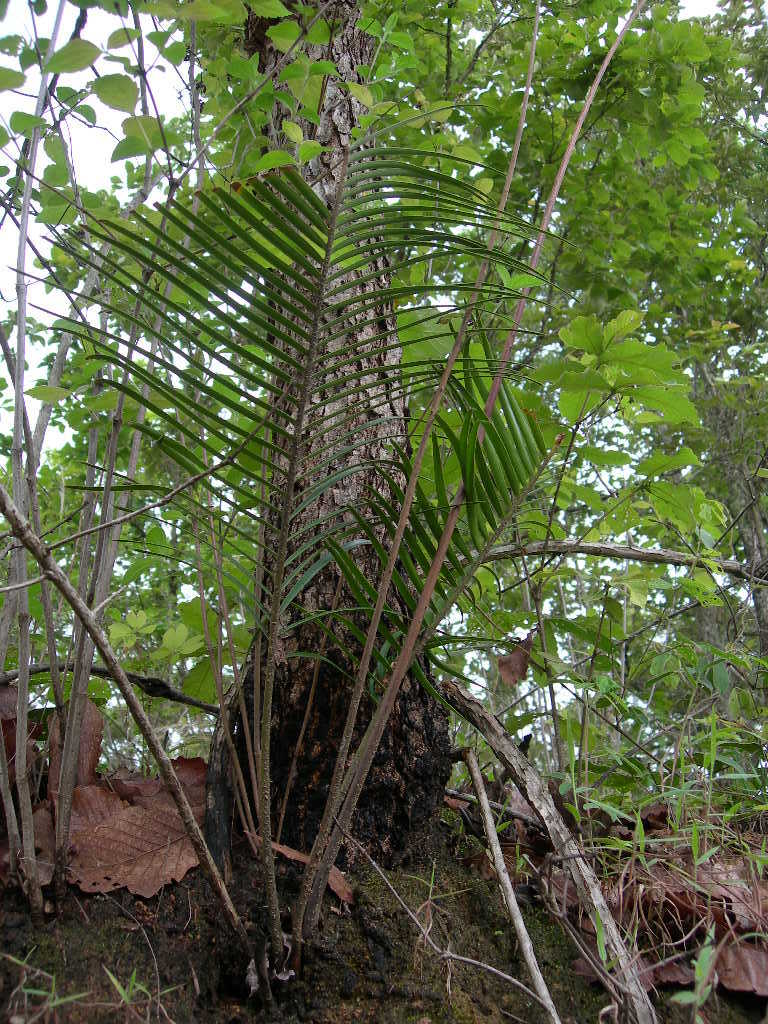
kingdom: Plantae
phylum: Tracheophyta
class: Cycadopsida
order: Cycadales
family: Zamiaceae
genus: Ceratozamia
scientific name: Ceratozamia mirandae
